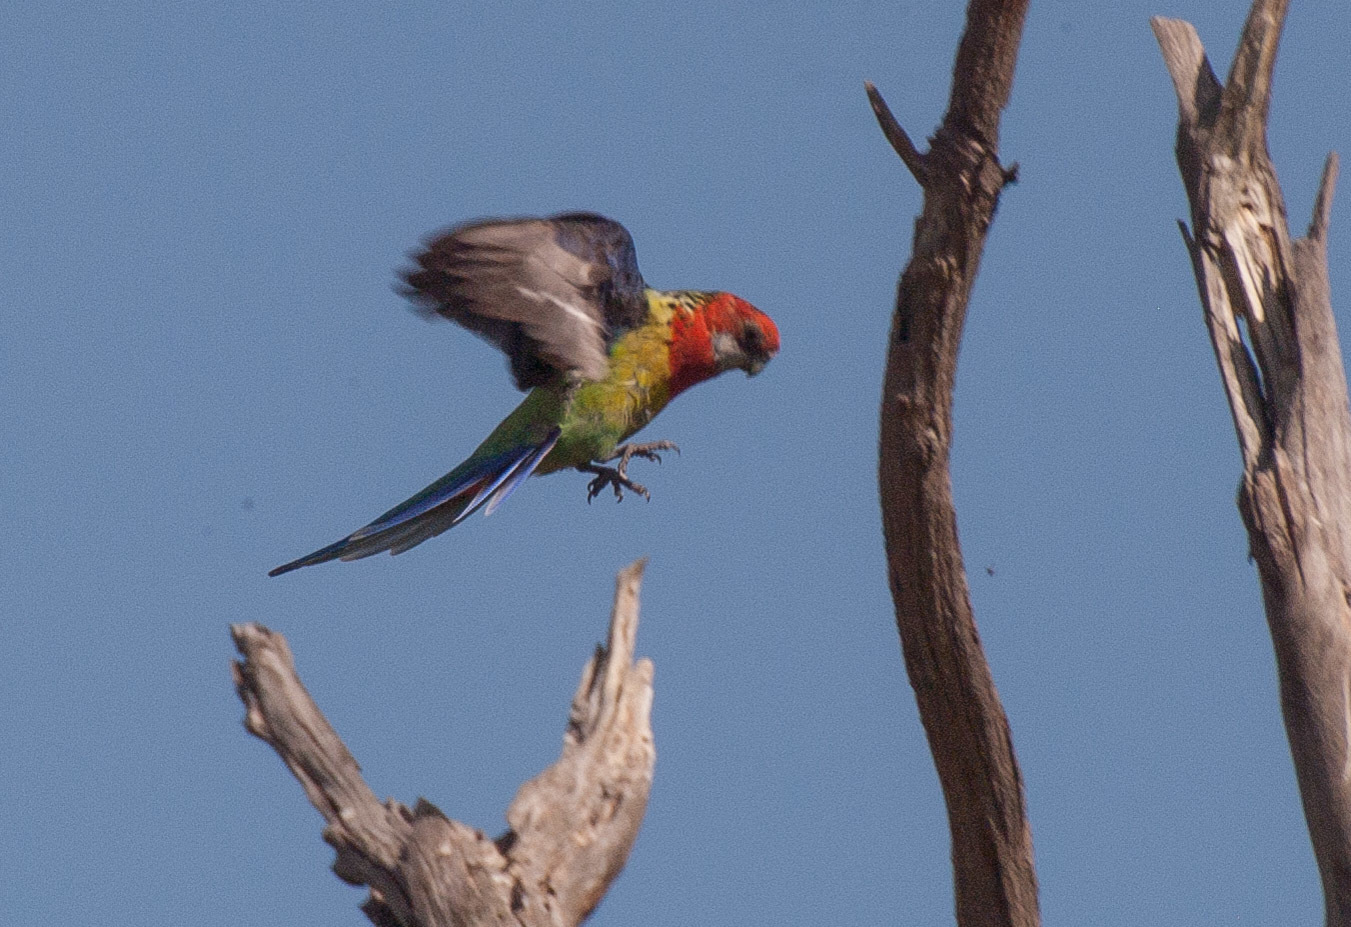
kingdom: Animalia
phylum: Chordata
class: Aves
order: Psittaciformes
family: Psittacidae
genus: Platycercus
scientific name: Platycercus eximius
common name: Eastern rosella
